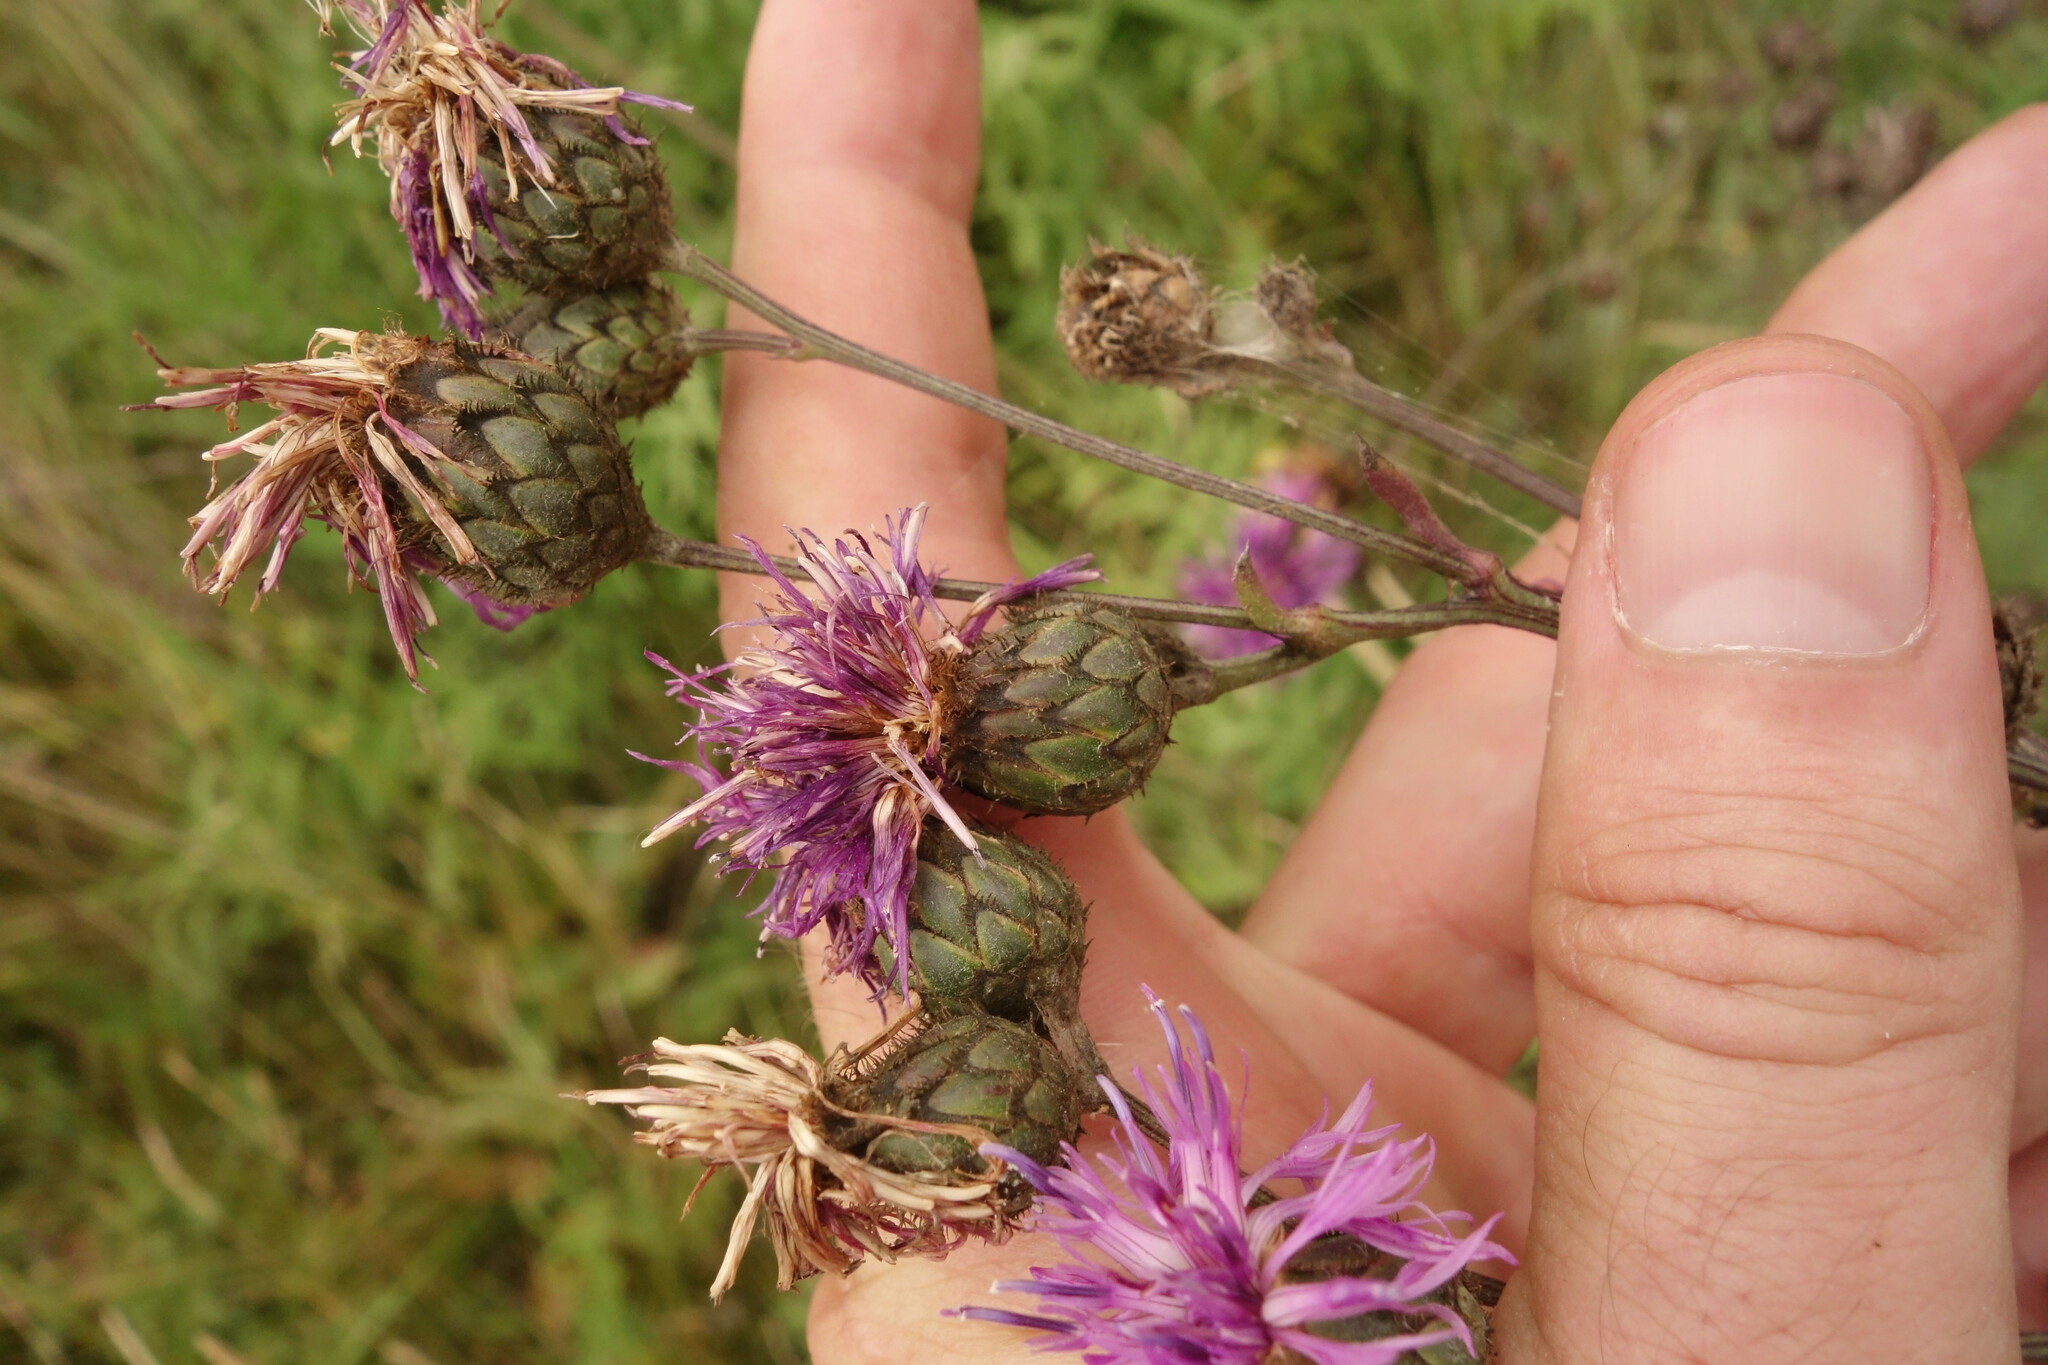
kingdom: Plantae
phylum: Tracheophyta
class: Magnoliopsida
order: Asterales
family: Asteraceae
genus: Centaurea
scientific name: Centaurea scabiosa
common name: Greater knapweed
